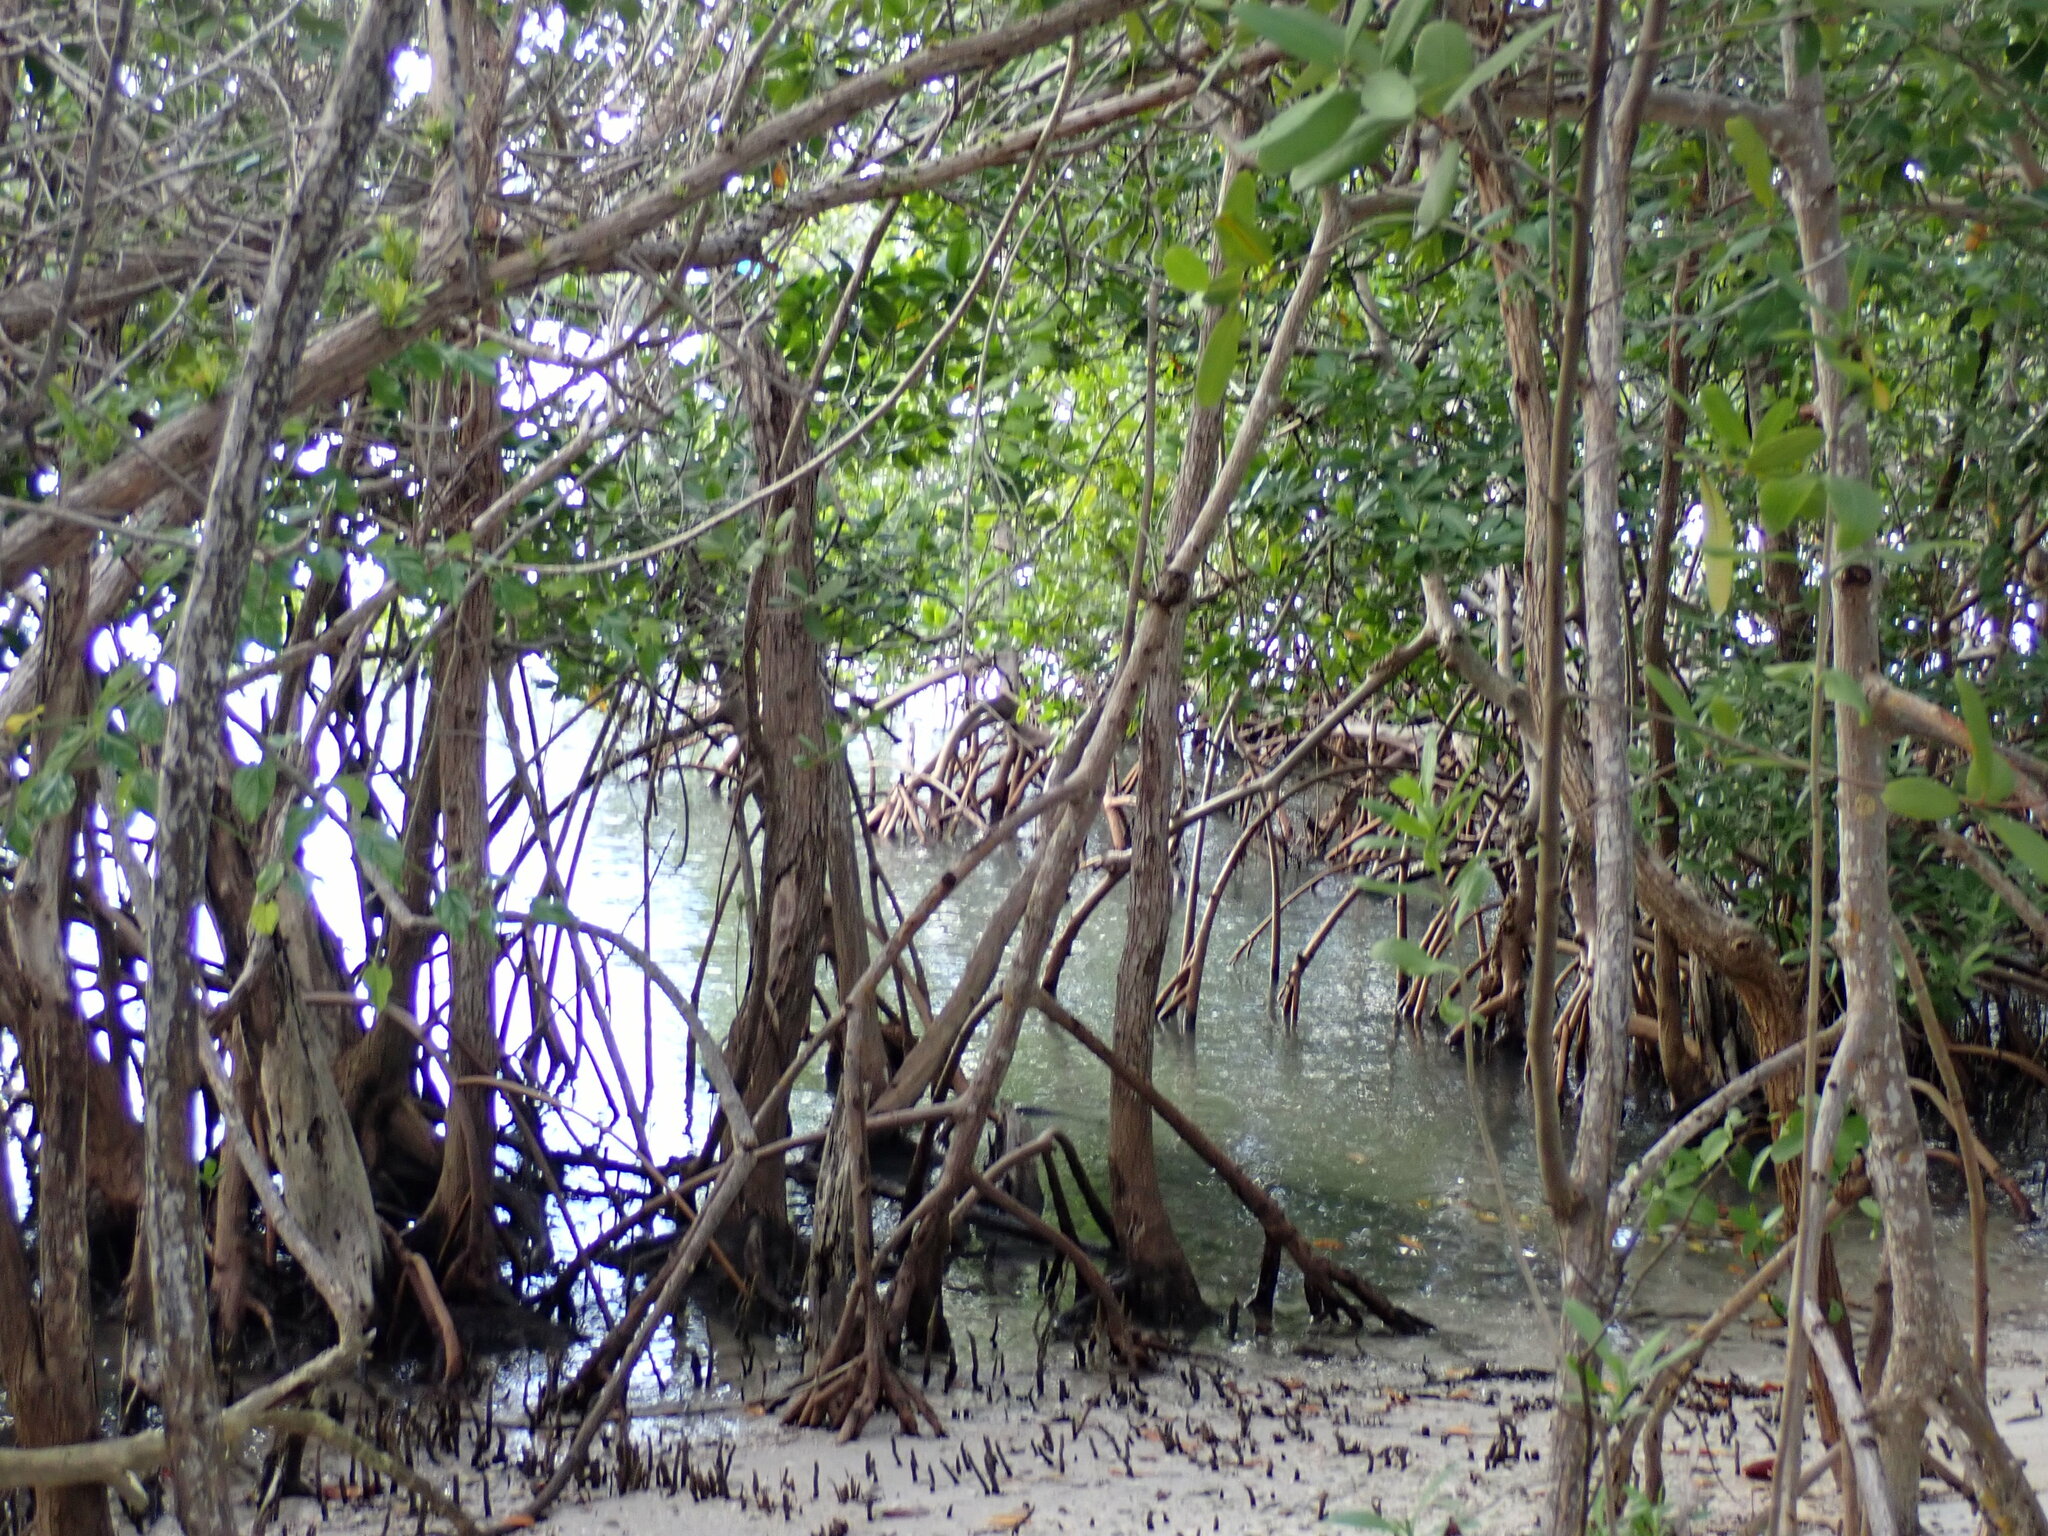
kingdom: Plantae
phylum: Tracheophyta
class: Magnoliopsida
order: Malpighiales
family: Rhizophoraceae
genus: Rhizophora
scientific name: Rhizophora mangle
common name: Red mangrove
